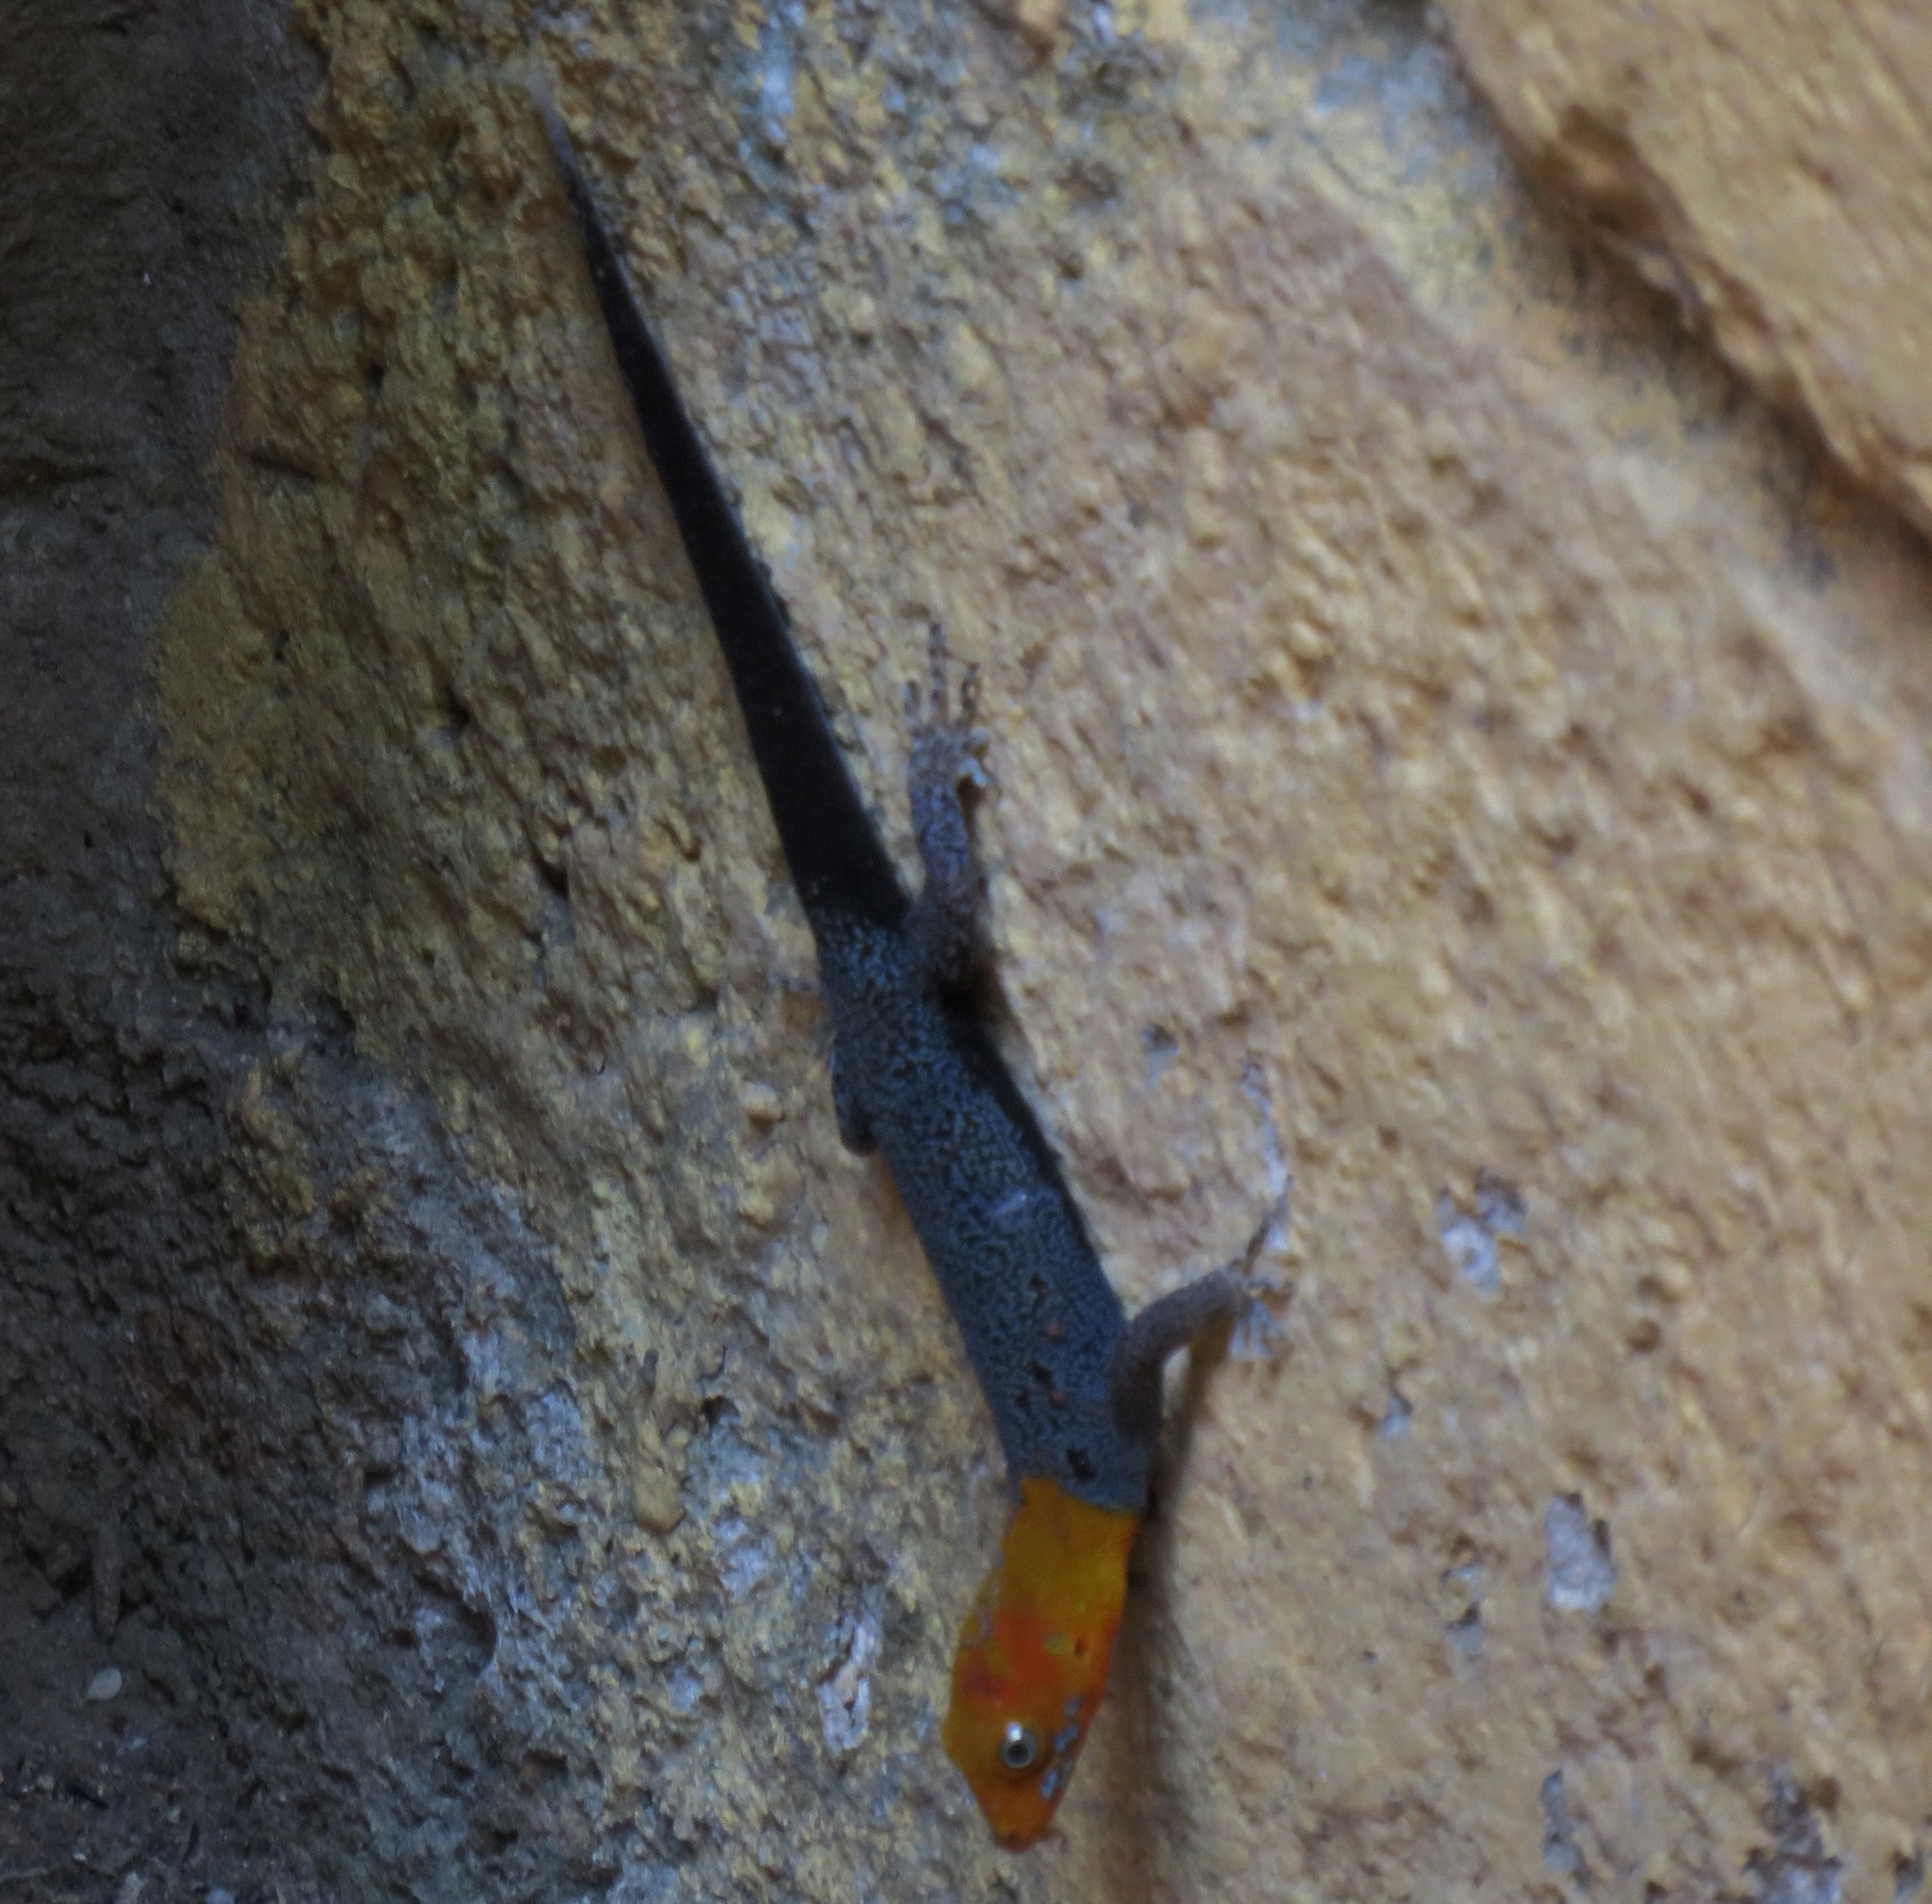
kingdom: Animalia
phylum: Chordata
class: Squamata
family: Sphaerodactylidae
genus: Gonatodes
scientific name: Gonatodes albogularis
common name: Yellow-headed gecko
